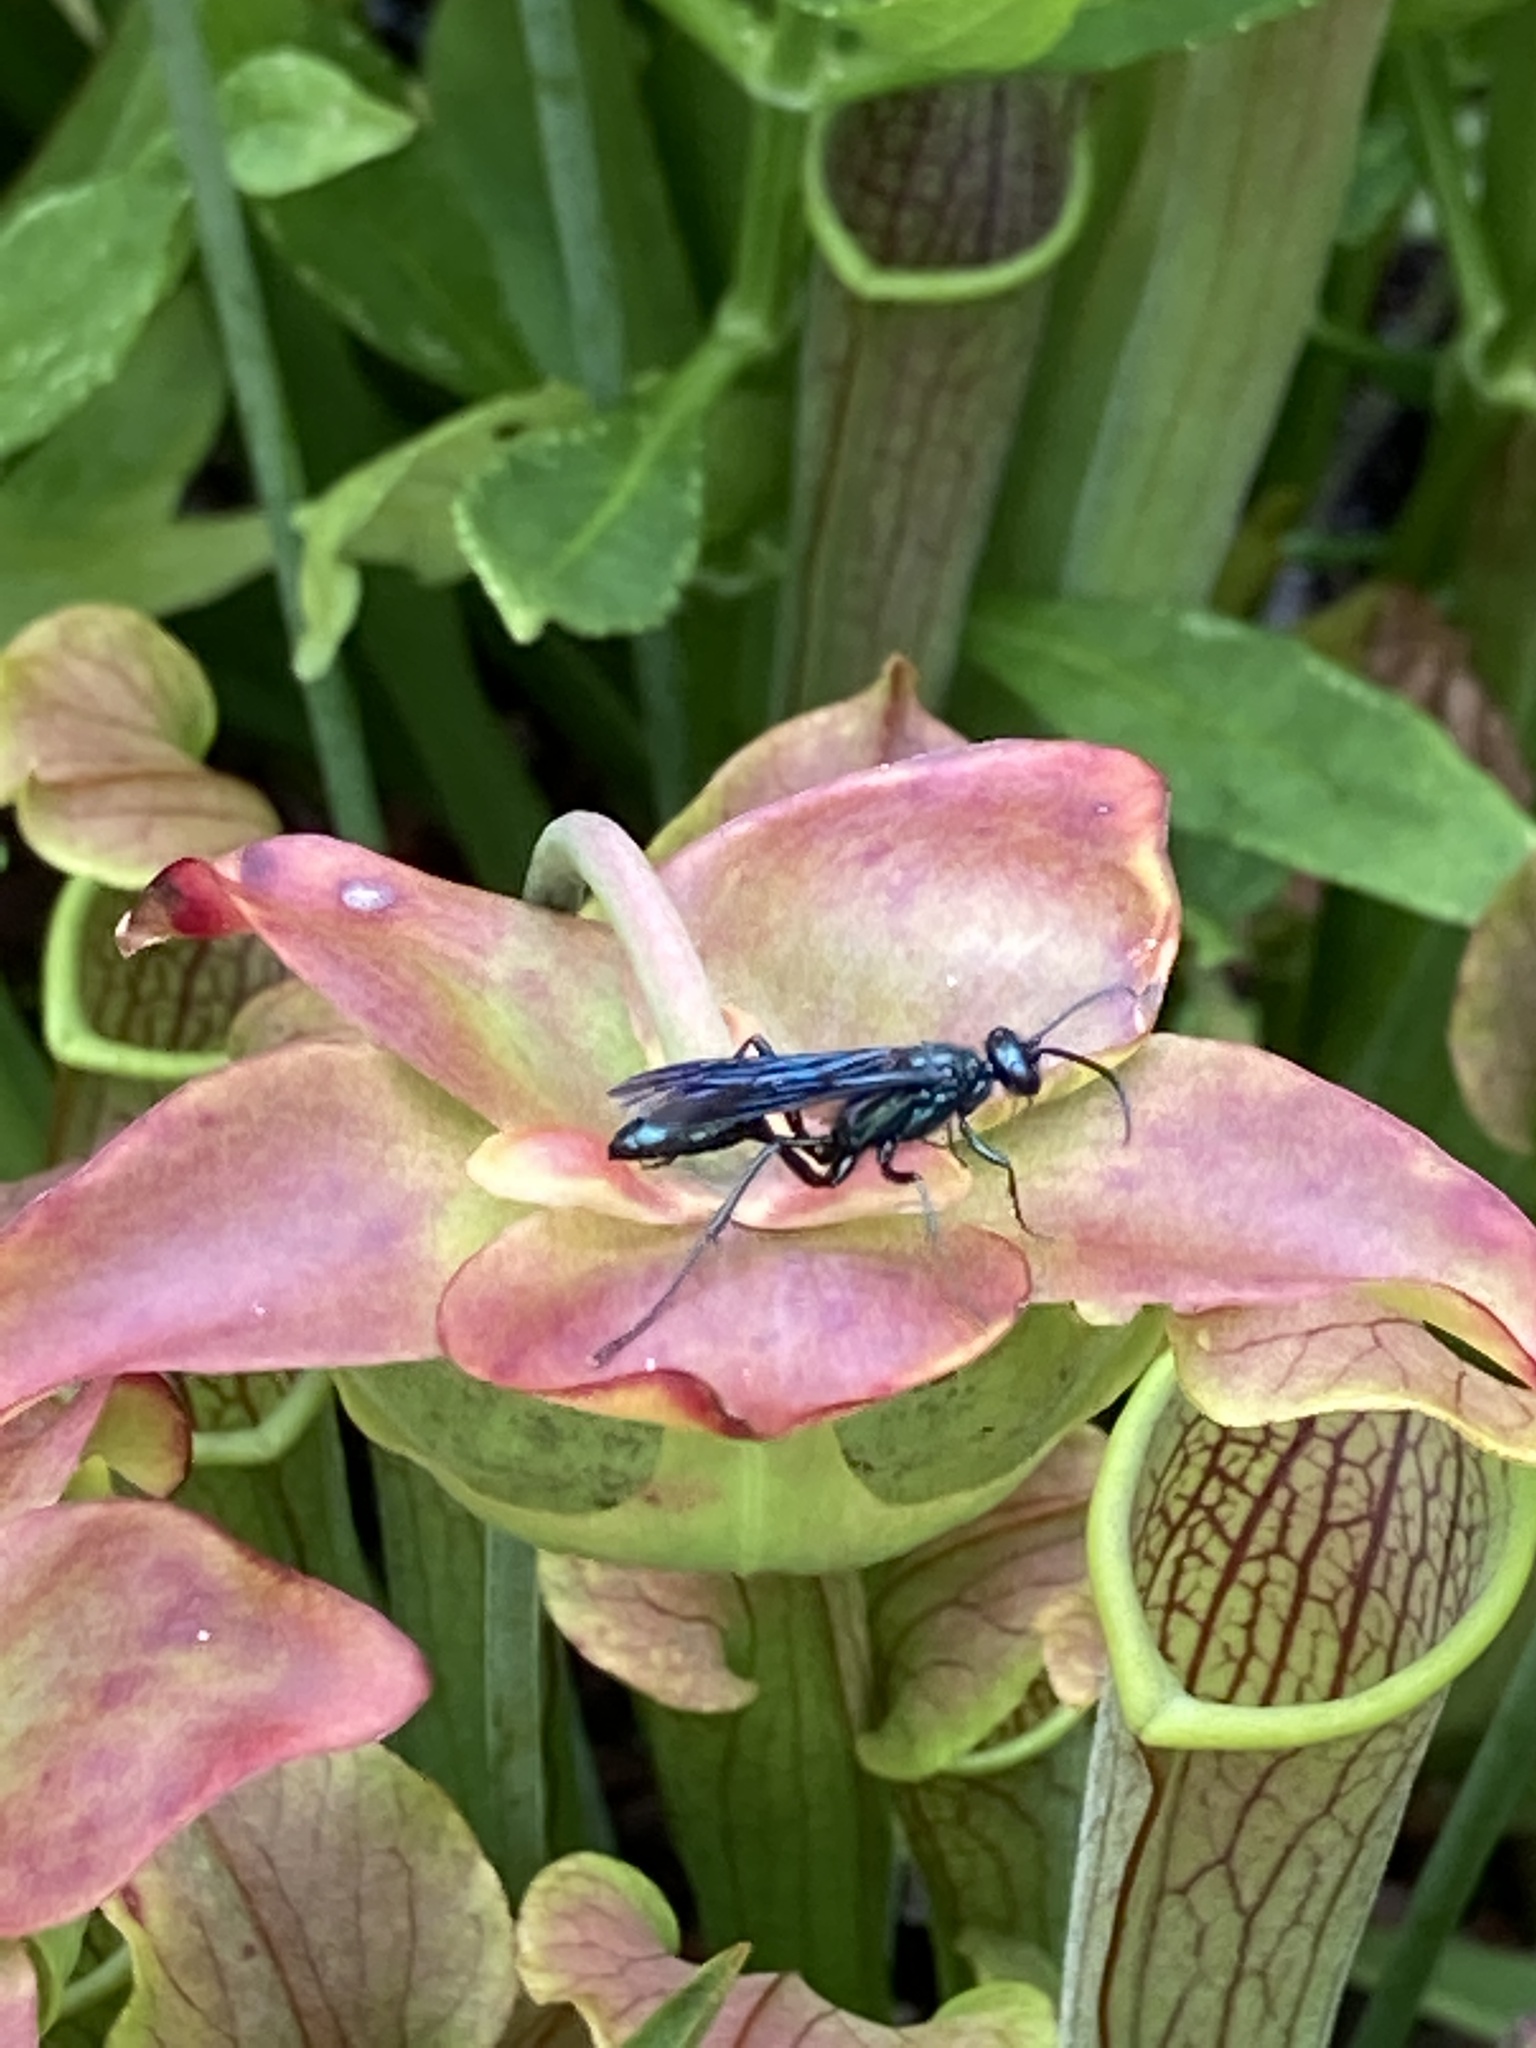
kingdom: Animalia
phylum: Arthropoda
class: Insecta
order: Hymenoptera
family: Sphecidae
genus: Chalybion
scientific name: Chalybion
